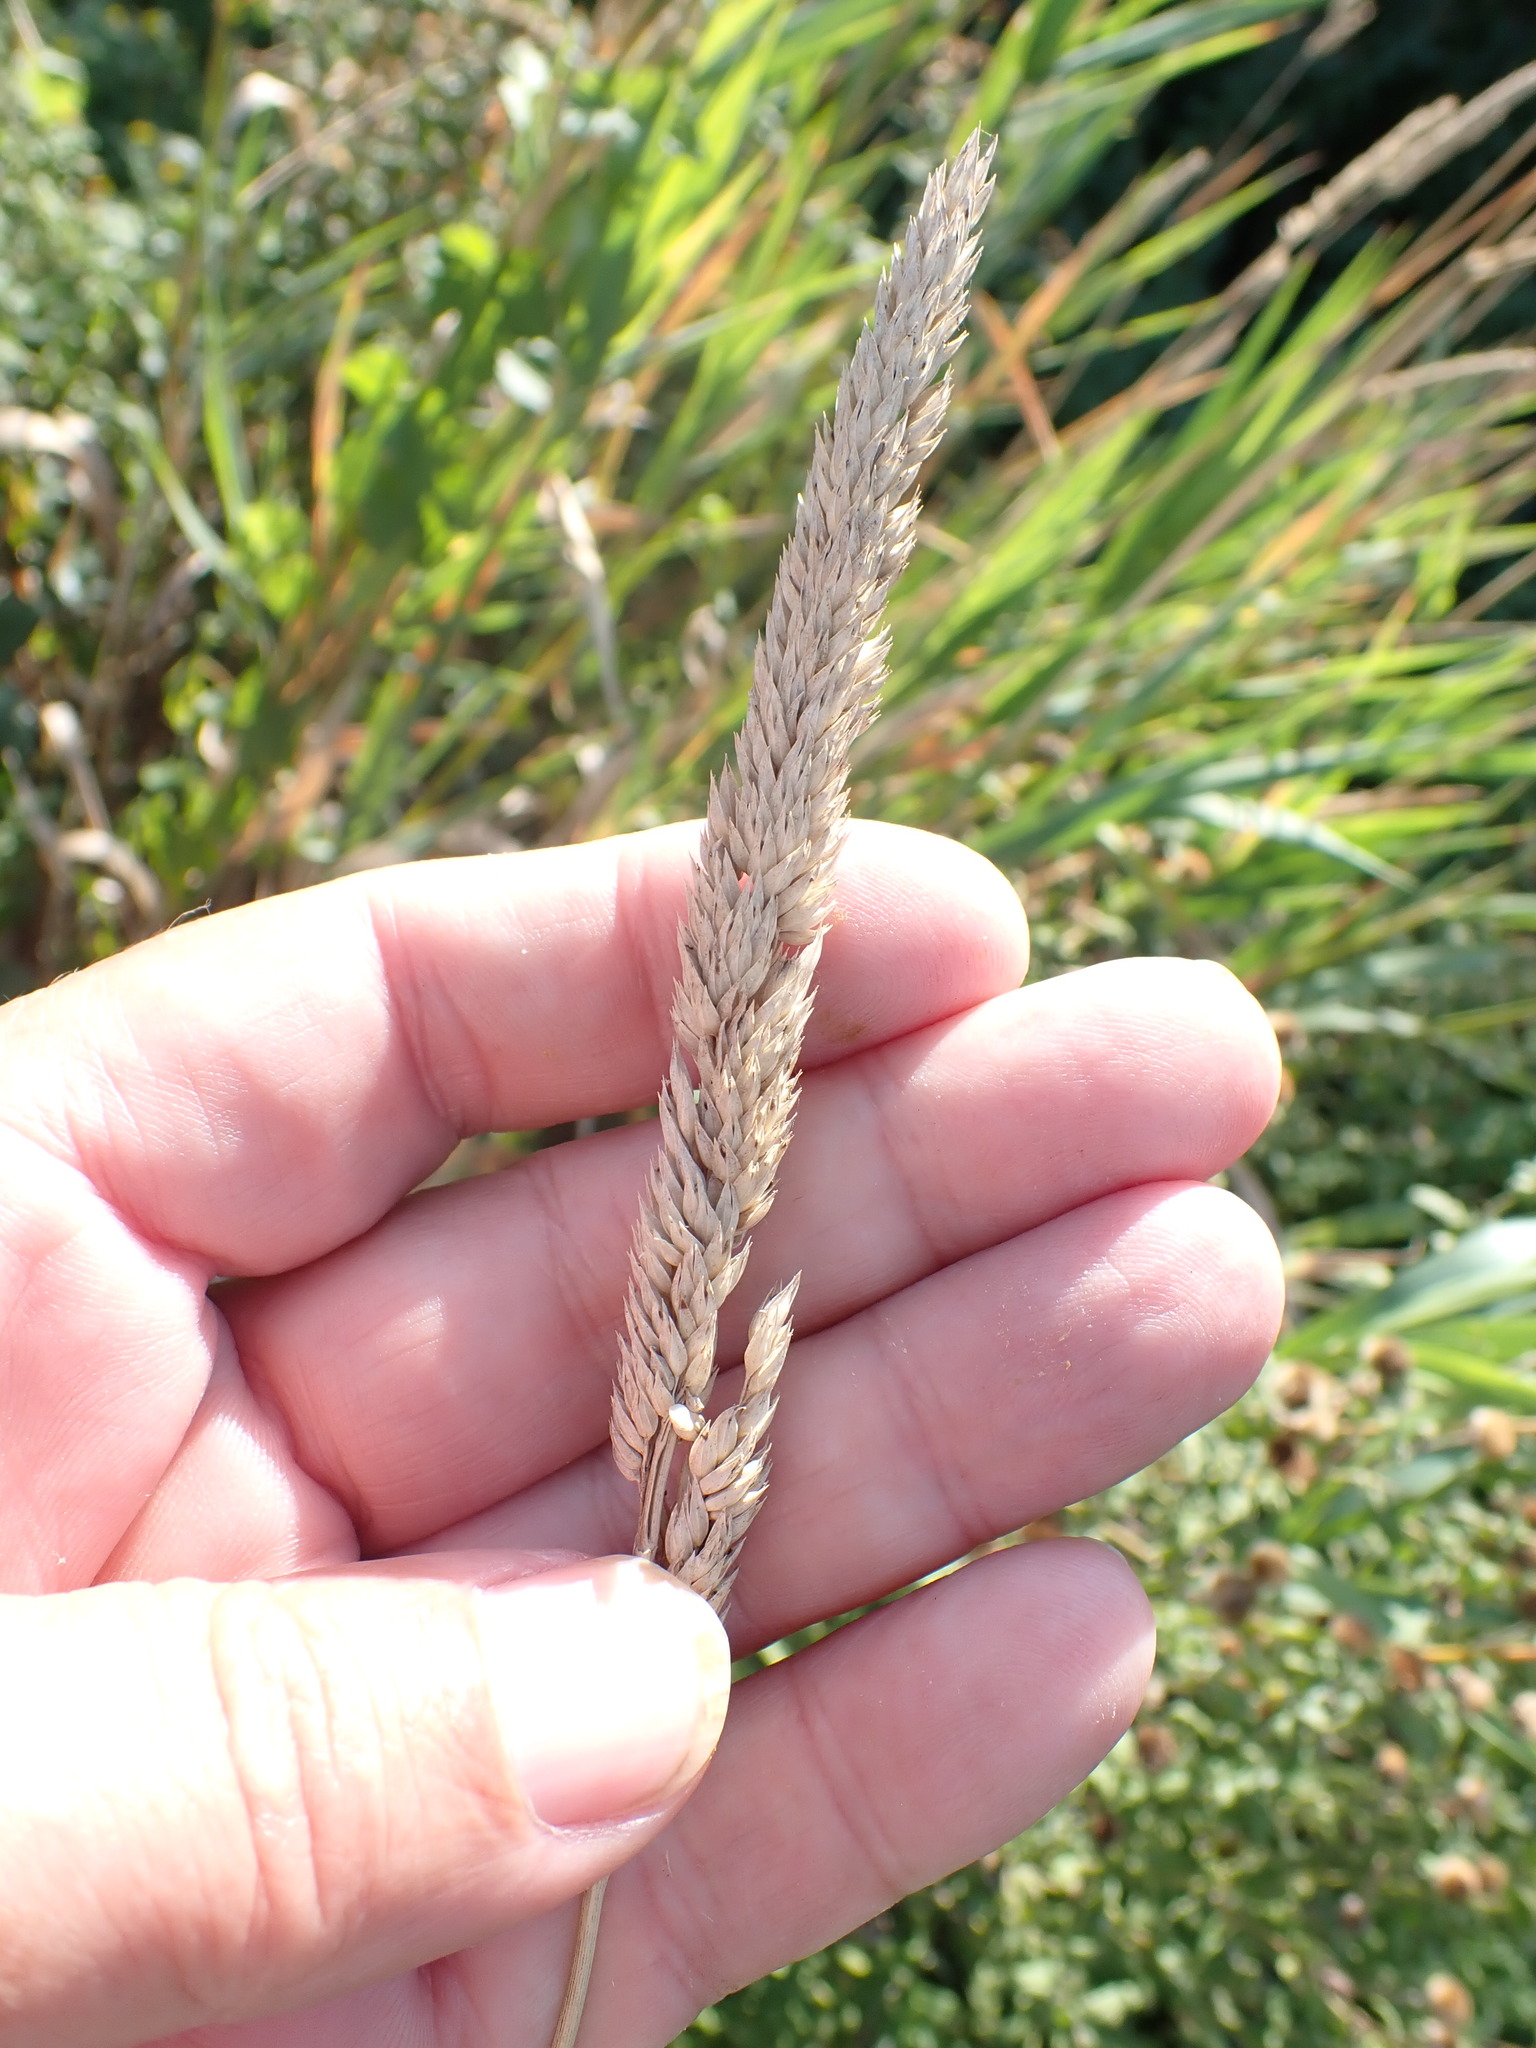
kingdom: Plantae
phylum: Tracheophyta
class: Liliopsida
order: Poales
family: Poaceae
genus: Phalaris
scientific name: Phalaris arundinacea
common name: Reed canary-grass
